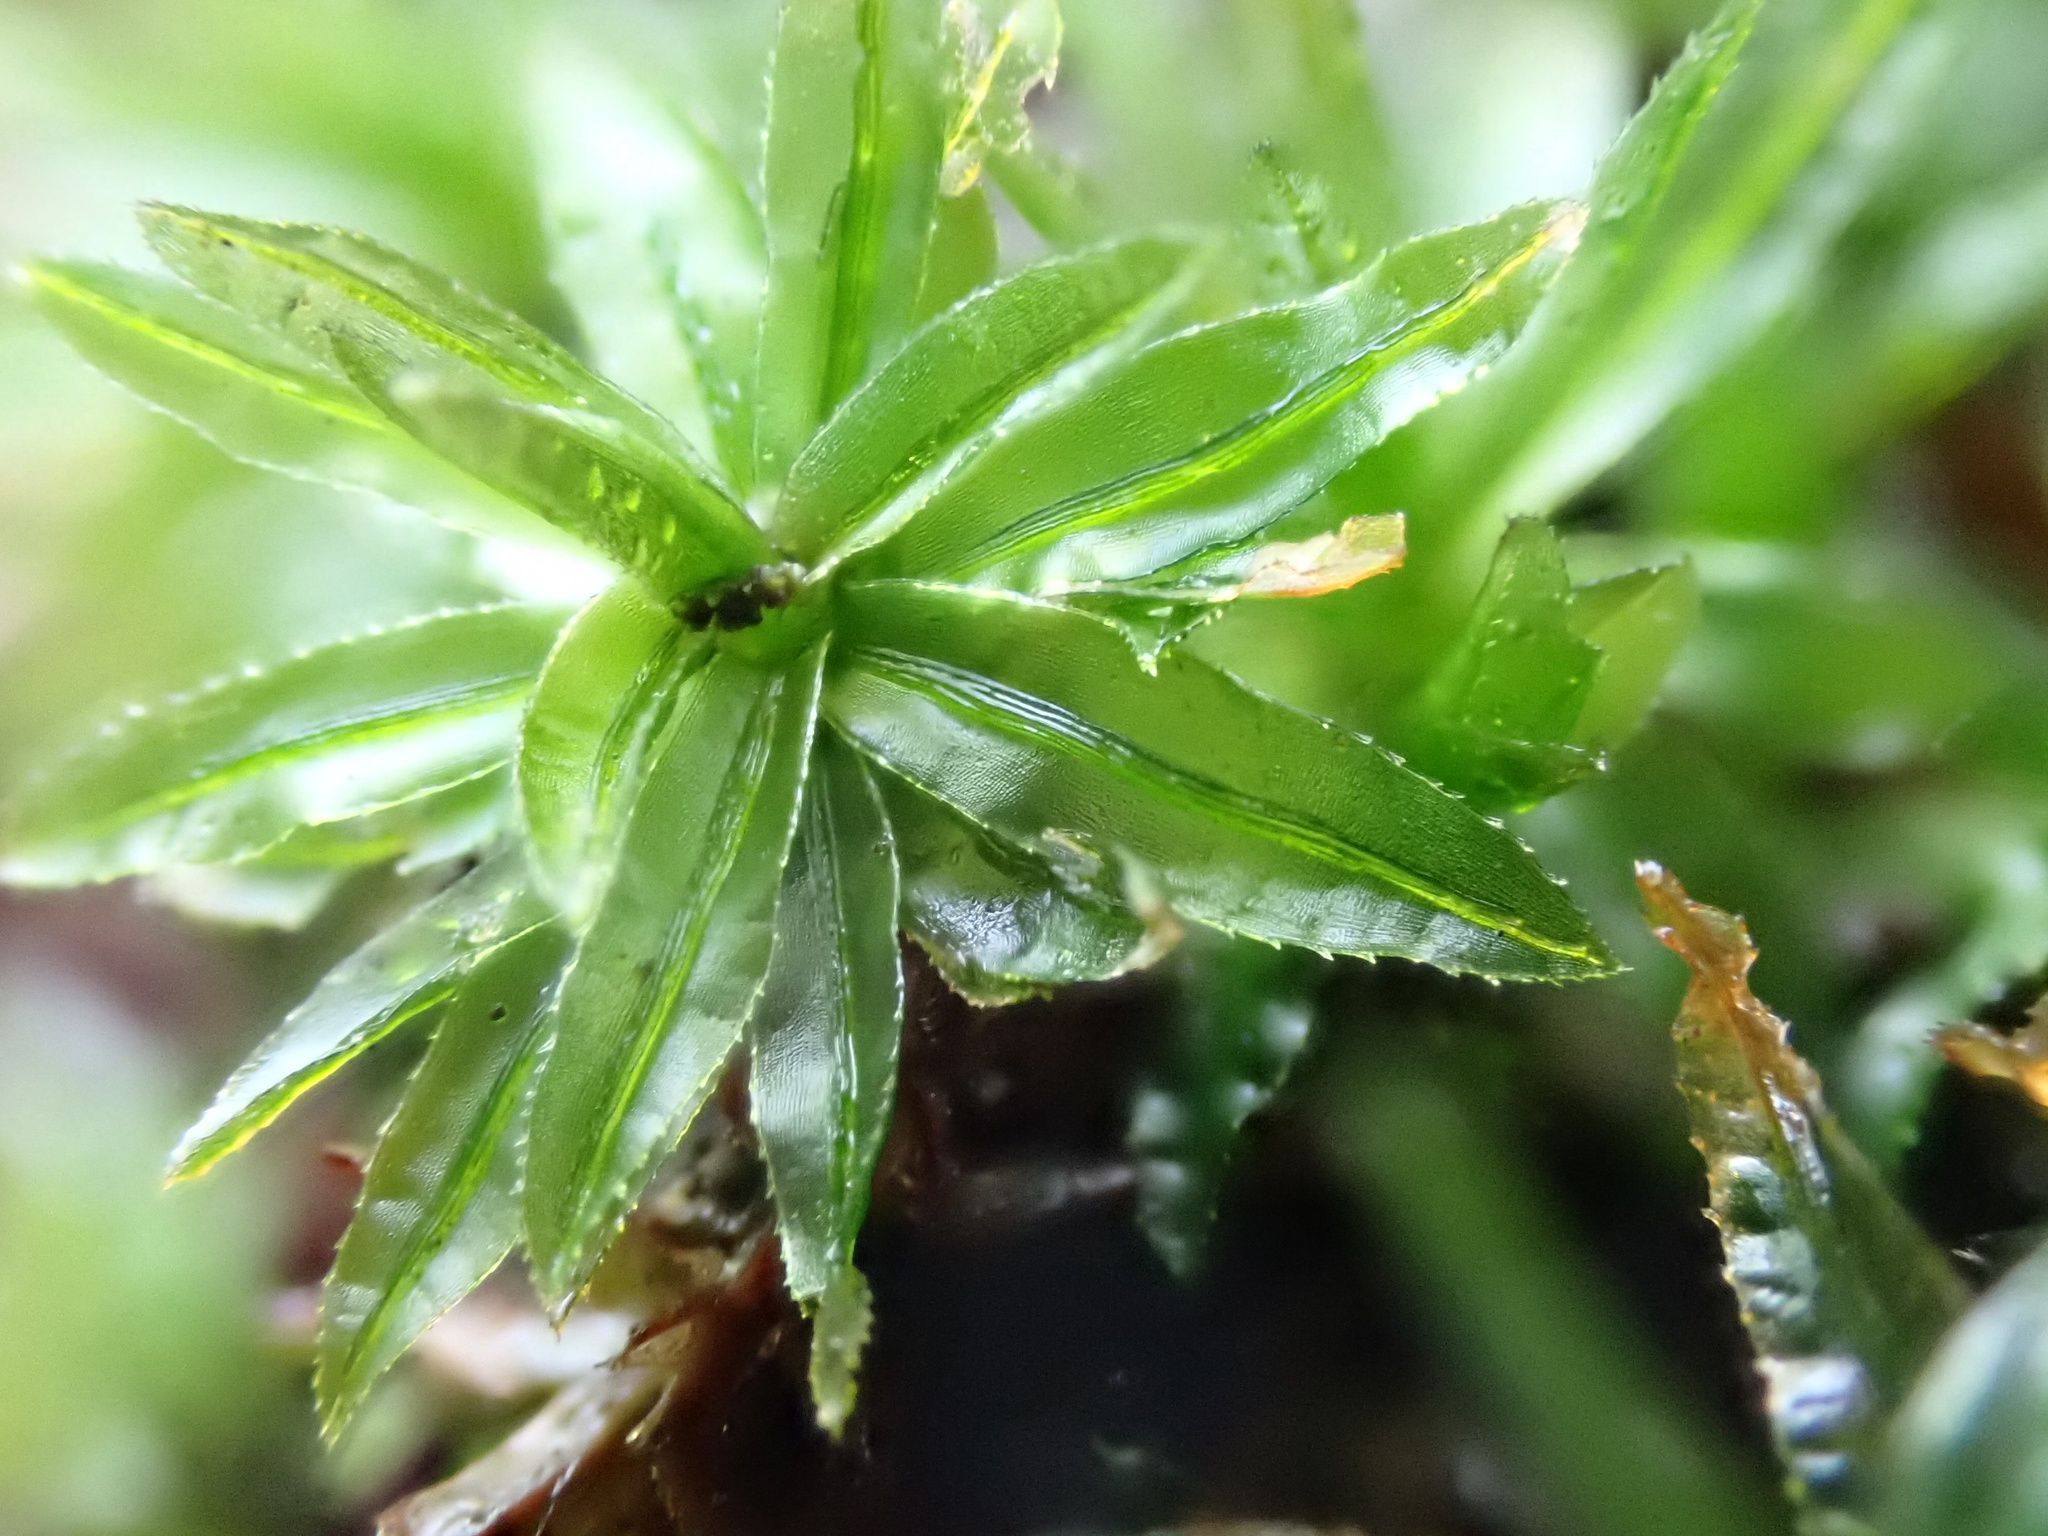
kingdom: Plantae
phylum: Bryophyta
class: Polytrichopsida
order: Polytrichales
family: Polytrichaceae
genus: Atrichum
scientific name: Atrichum undulatum
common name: Common smoothcap
